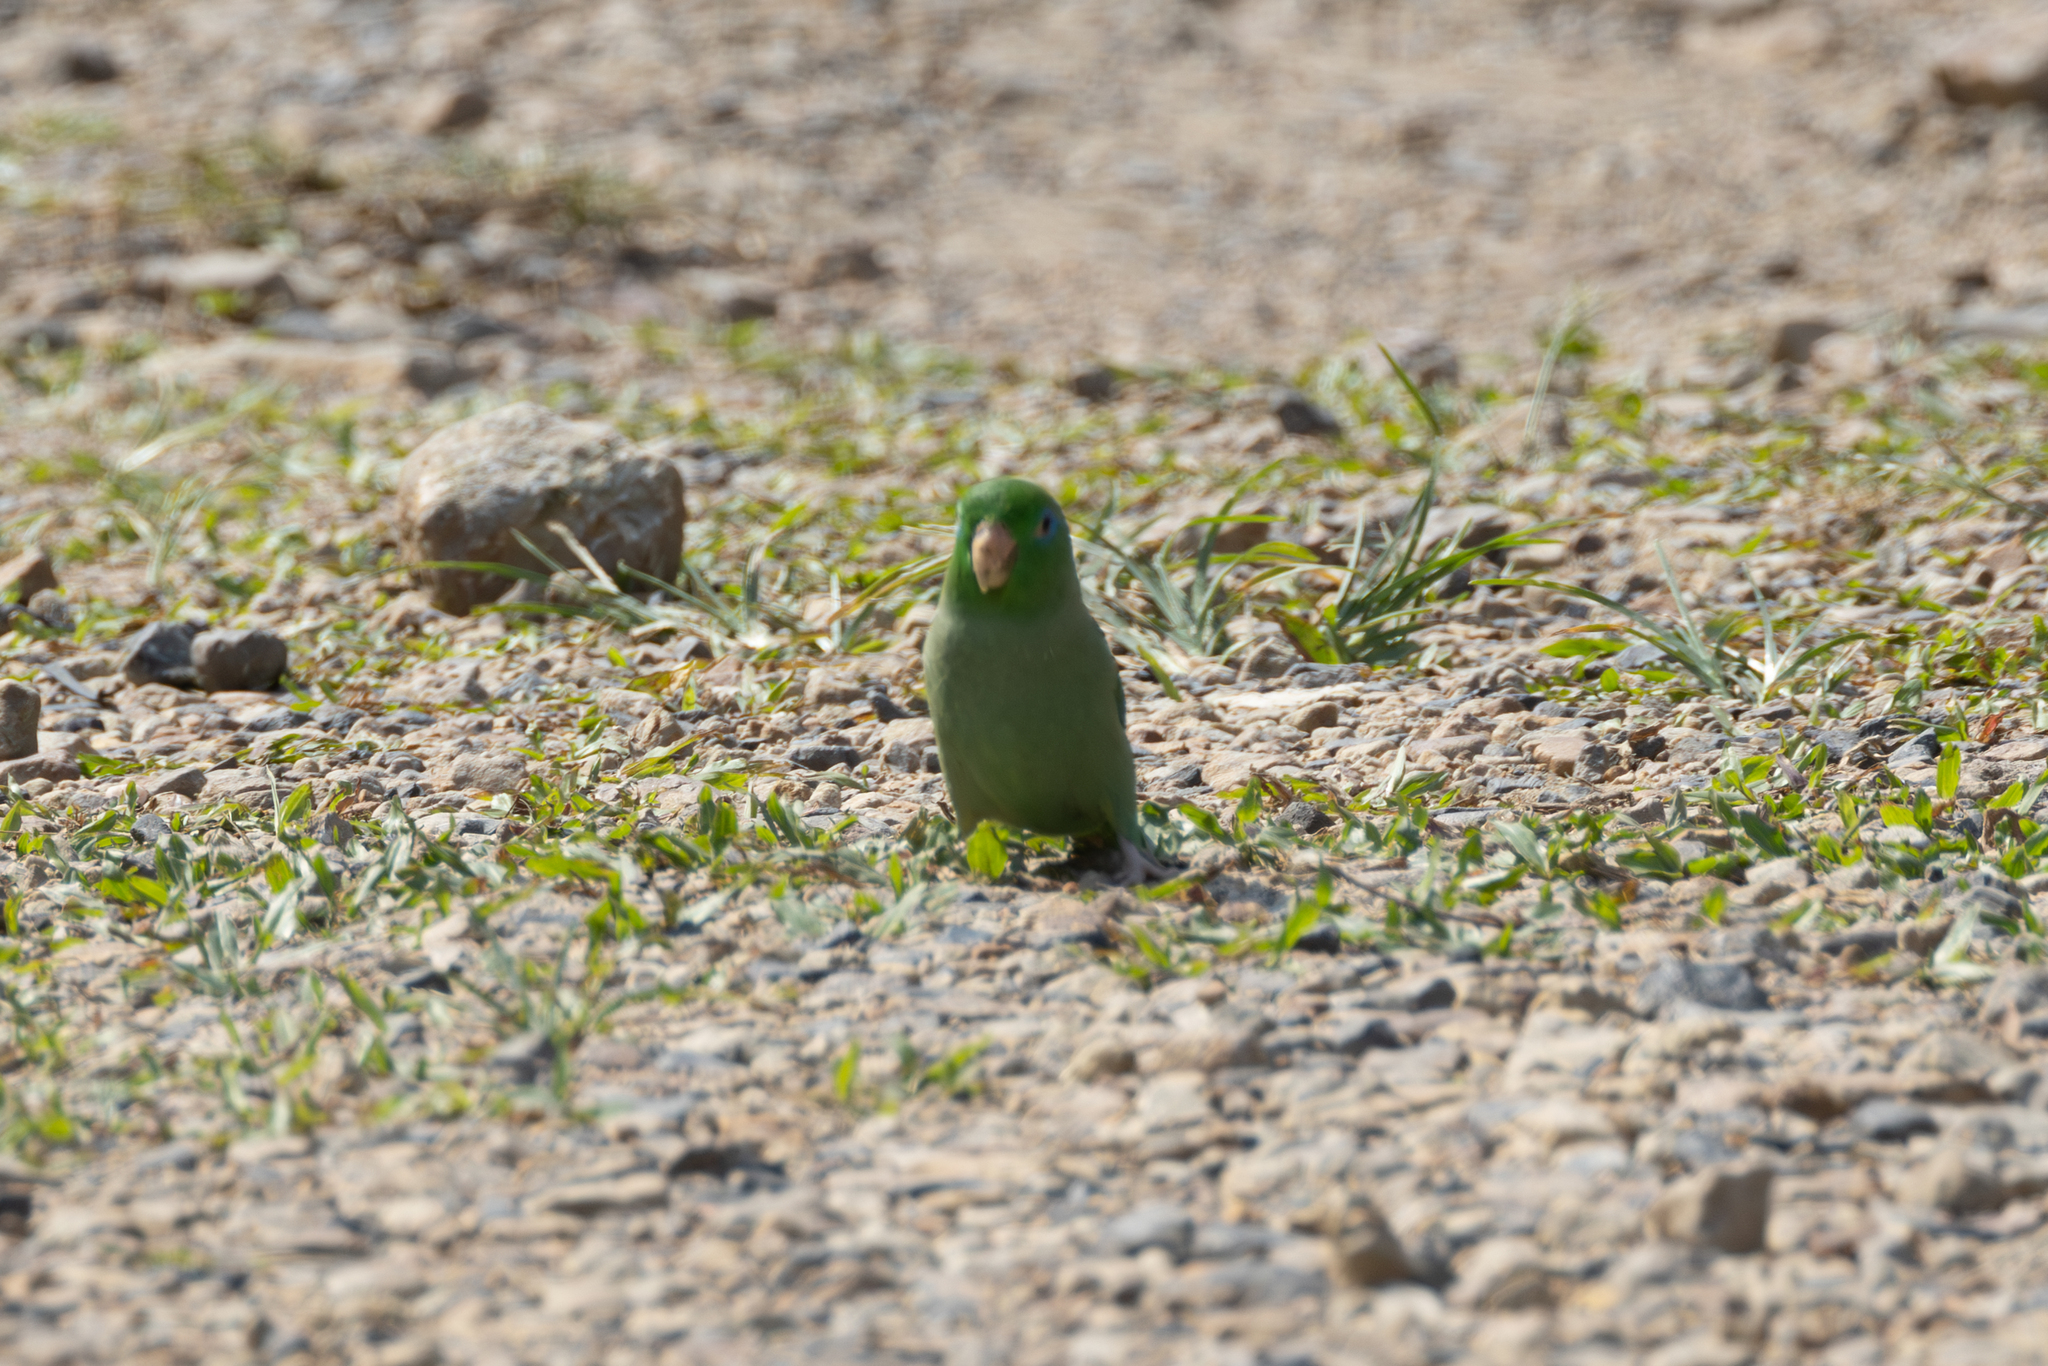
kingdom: Animalia
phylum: Chordata
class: Aves
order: Psittaciformes
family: Psittacidae
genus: Forpus
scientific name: Forpus conspicillatus
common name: Spectacled parrotlet
